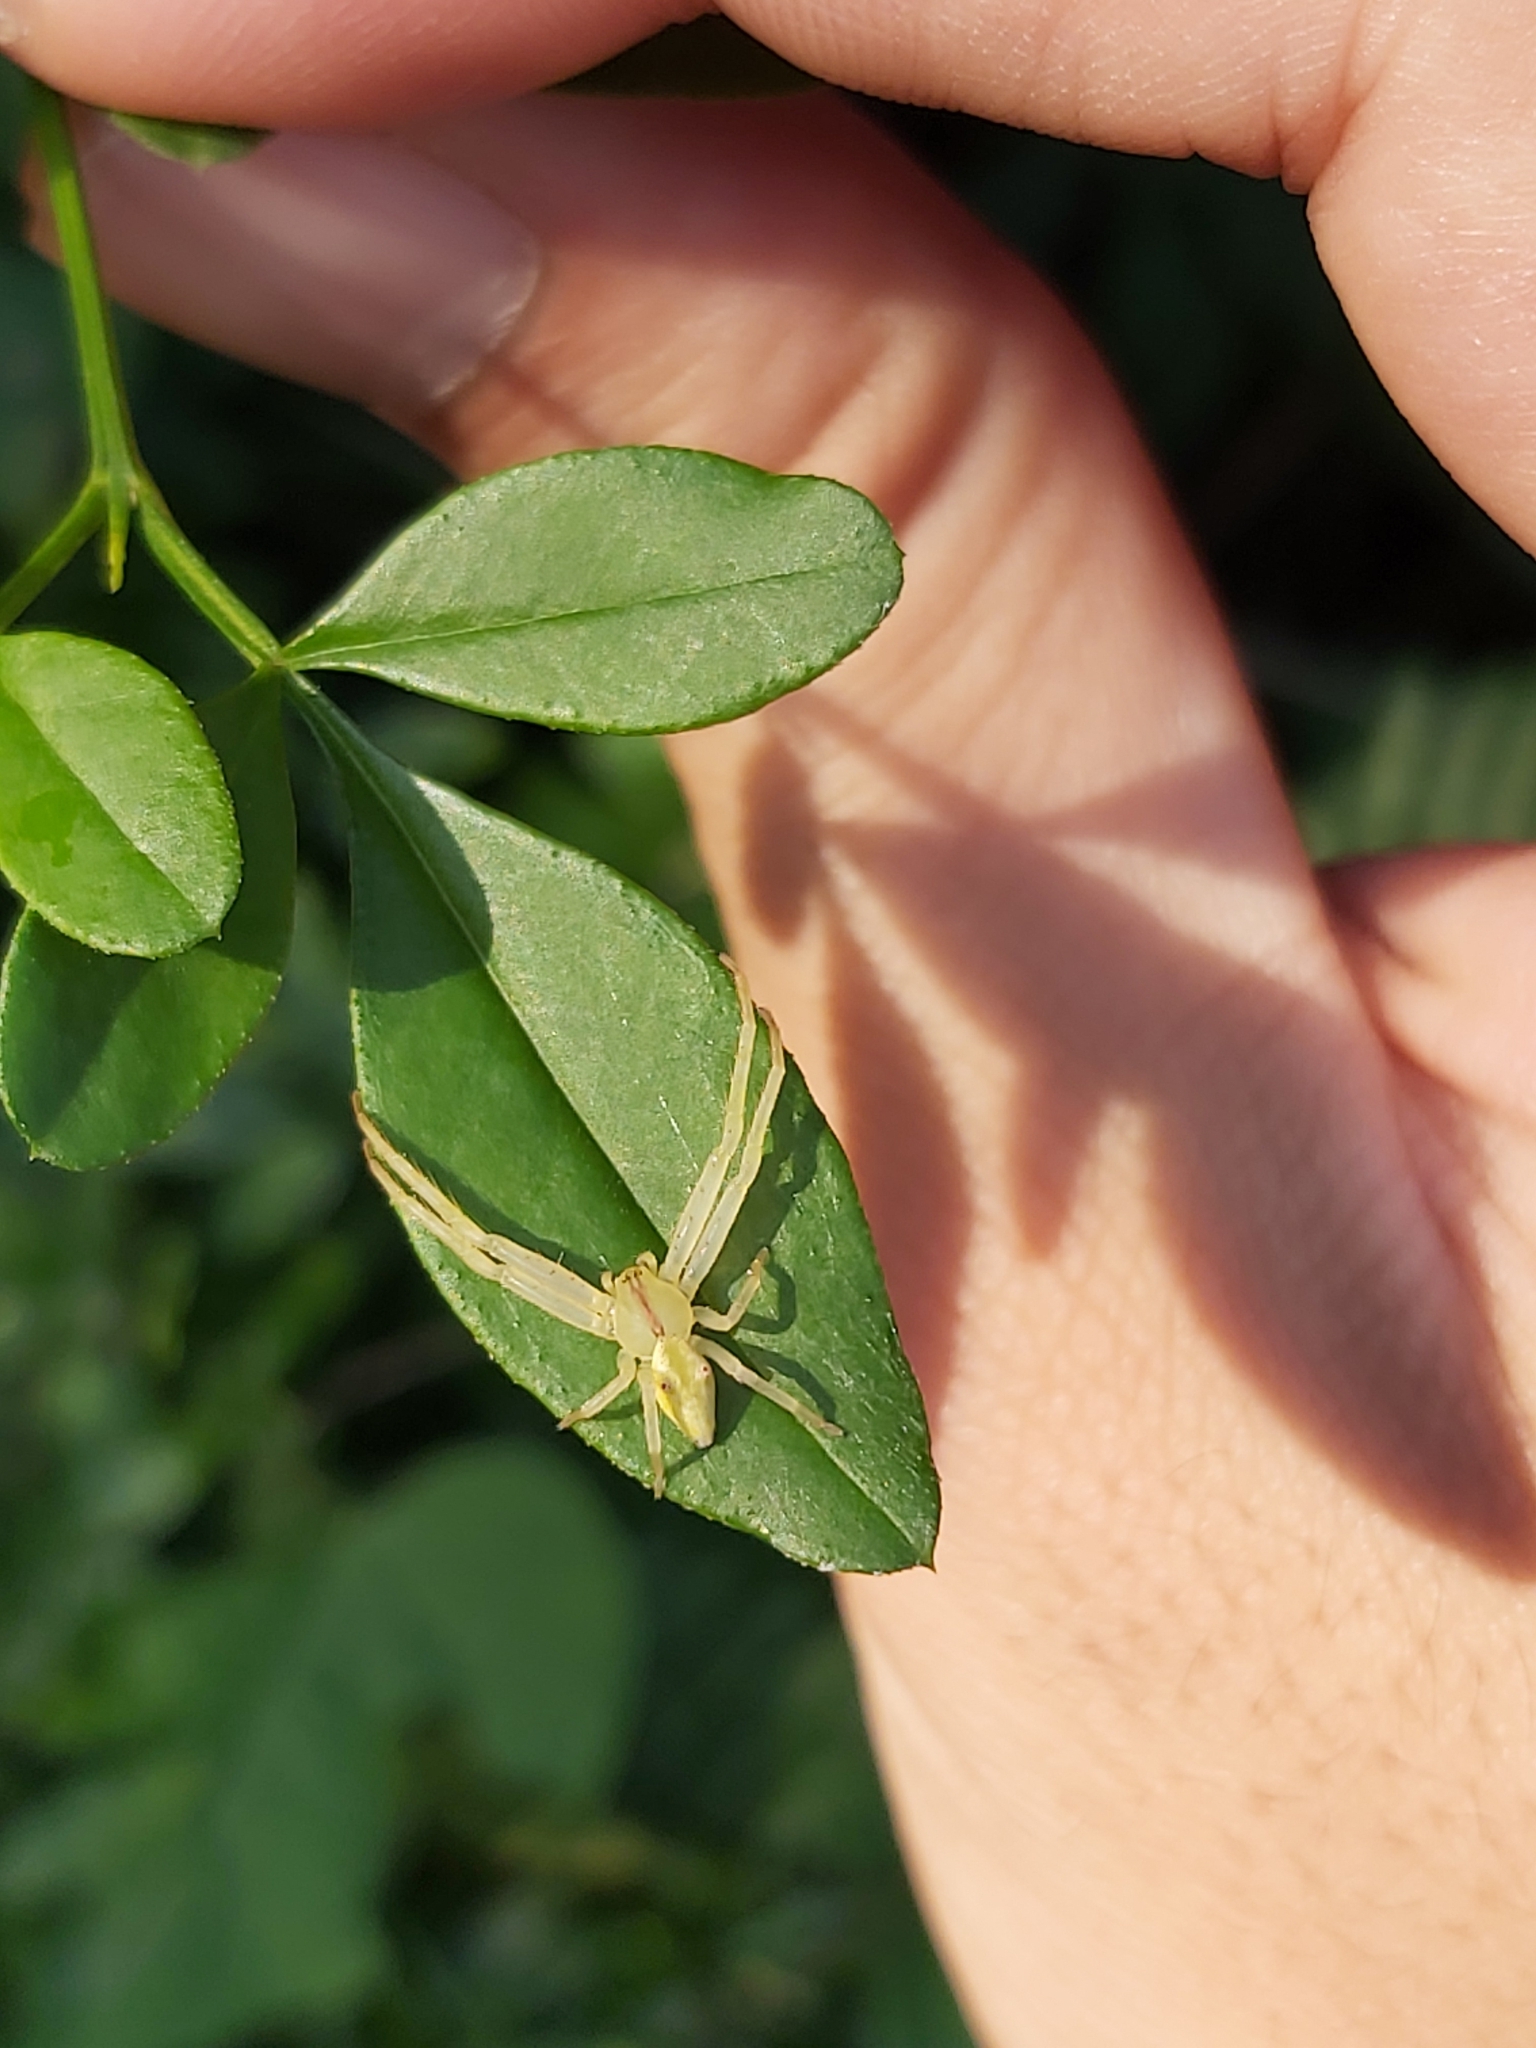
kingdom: Animalia
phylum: Arthropoda
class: Arachnida
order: Araneae
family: Thomisidae
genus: Sidymella
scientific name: Sidymella rubrosignata
